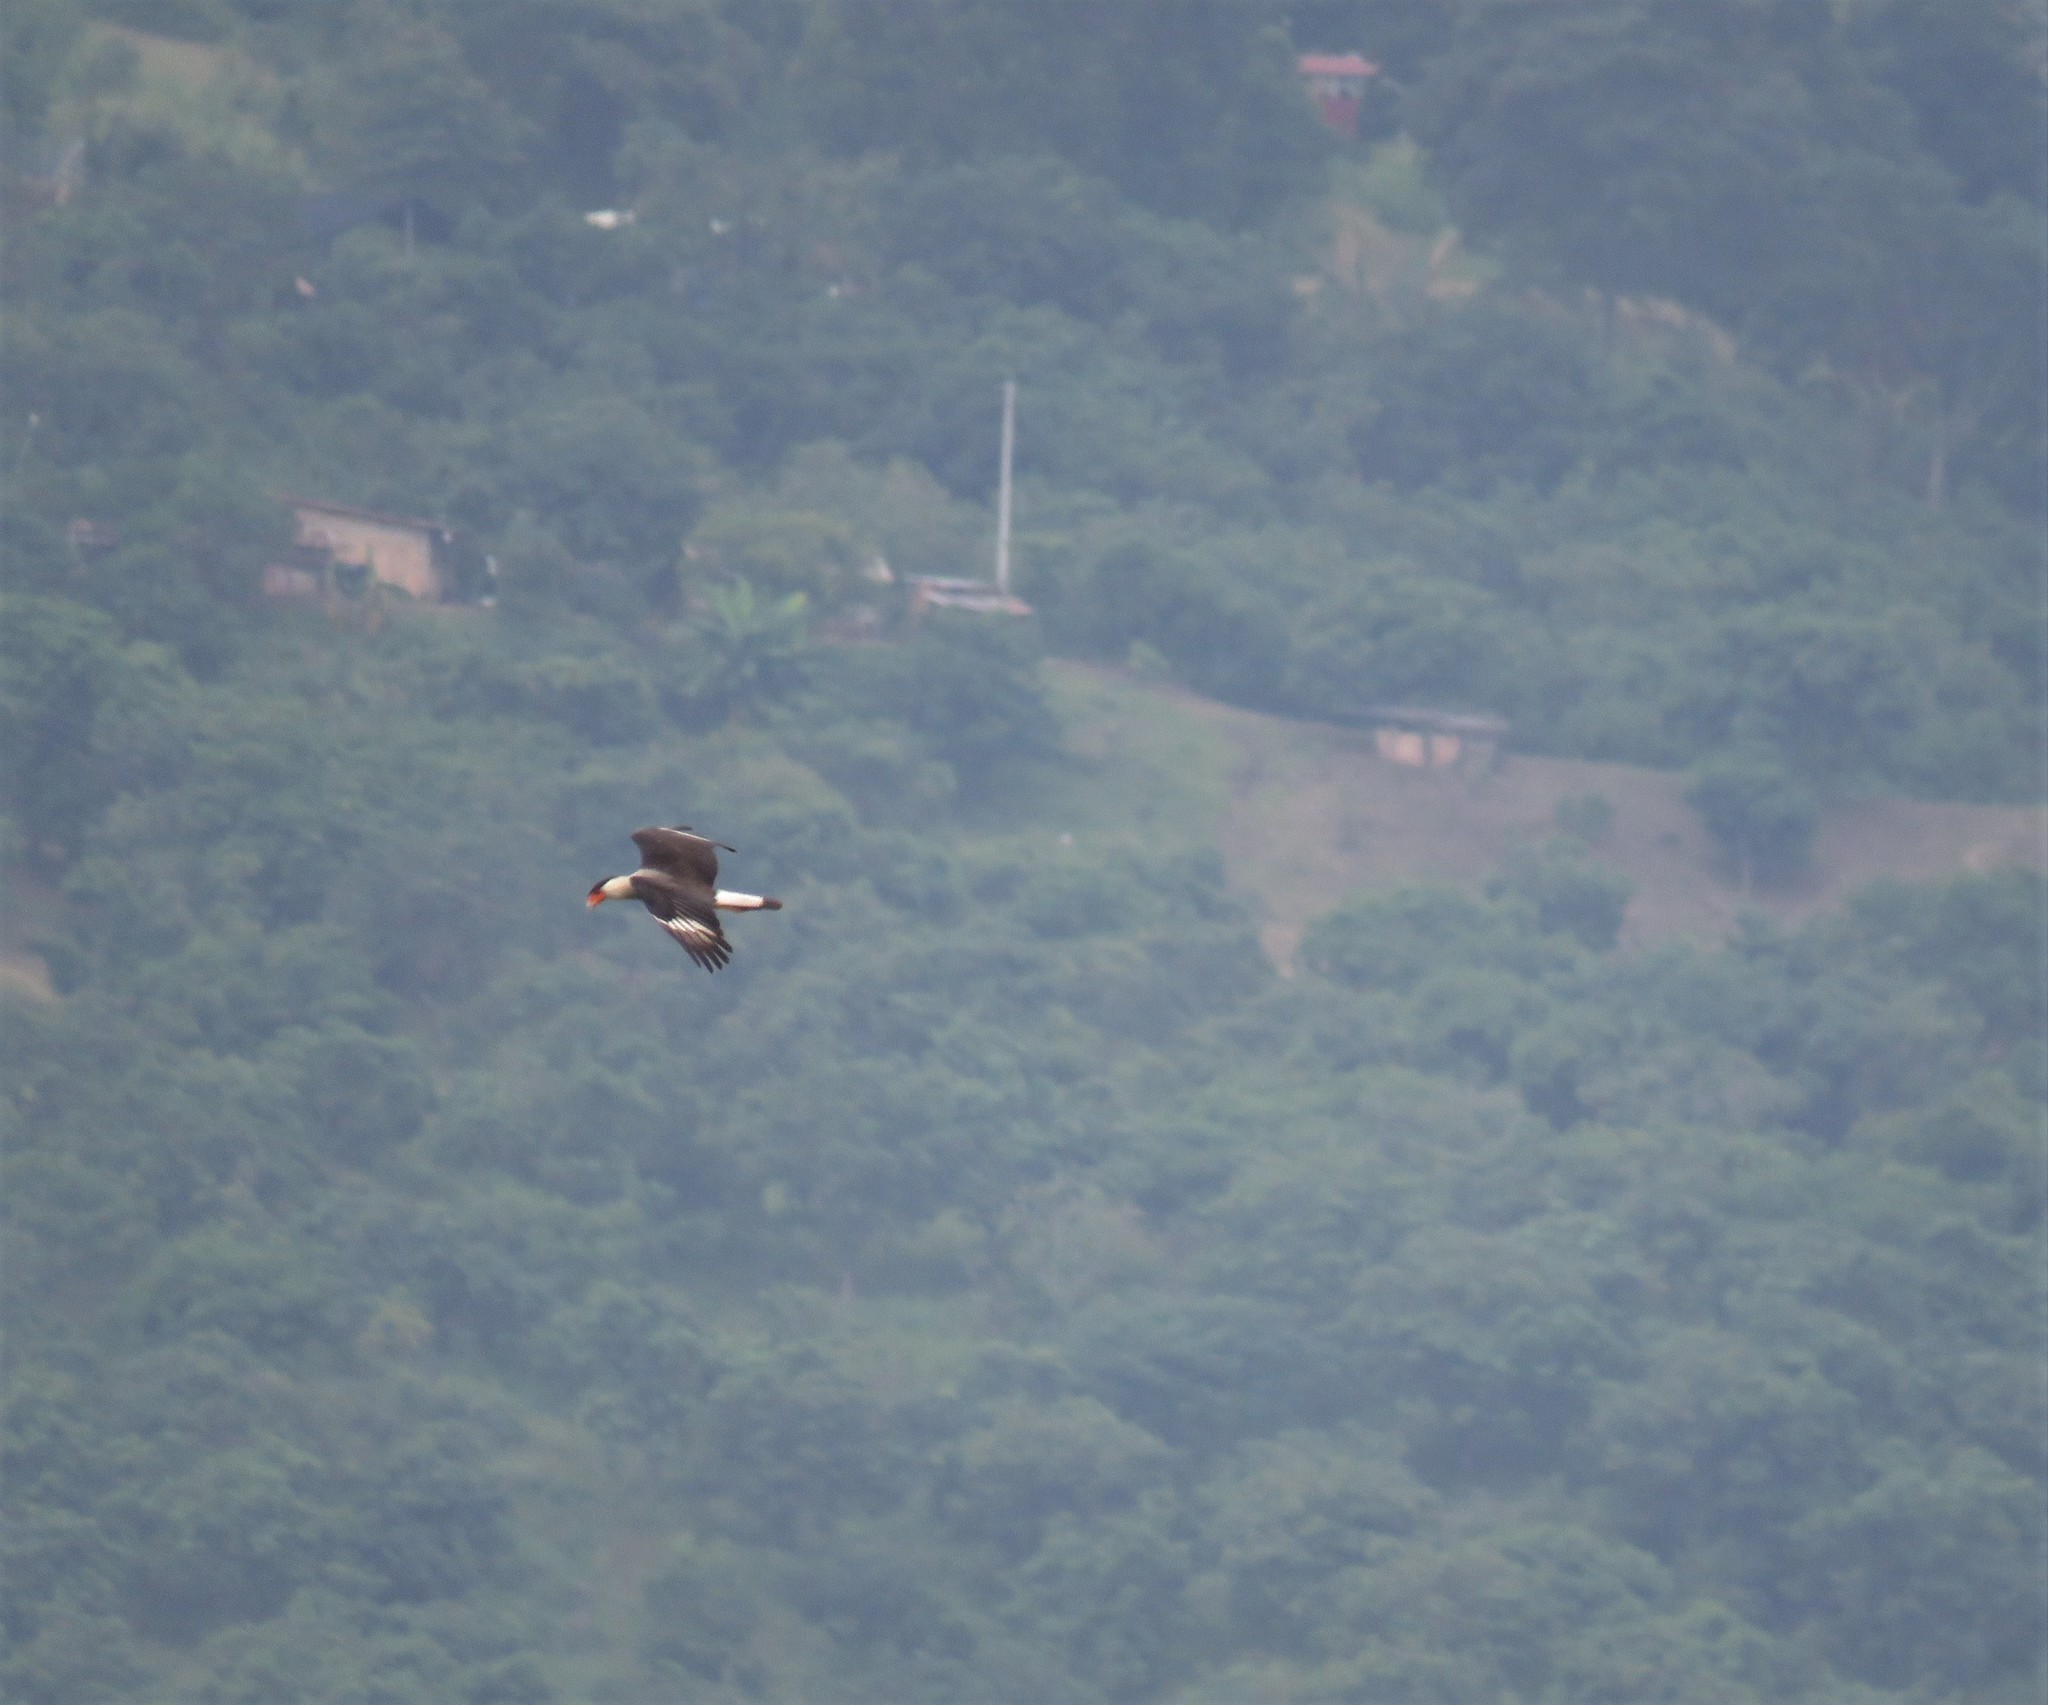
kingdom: Animalia
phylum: Chordata
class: Aves
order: Falconiformes
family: Falconidae
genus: Caracara
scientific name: Caracara plancus
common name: Southern caracara
